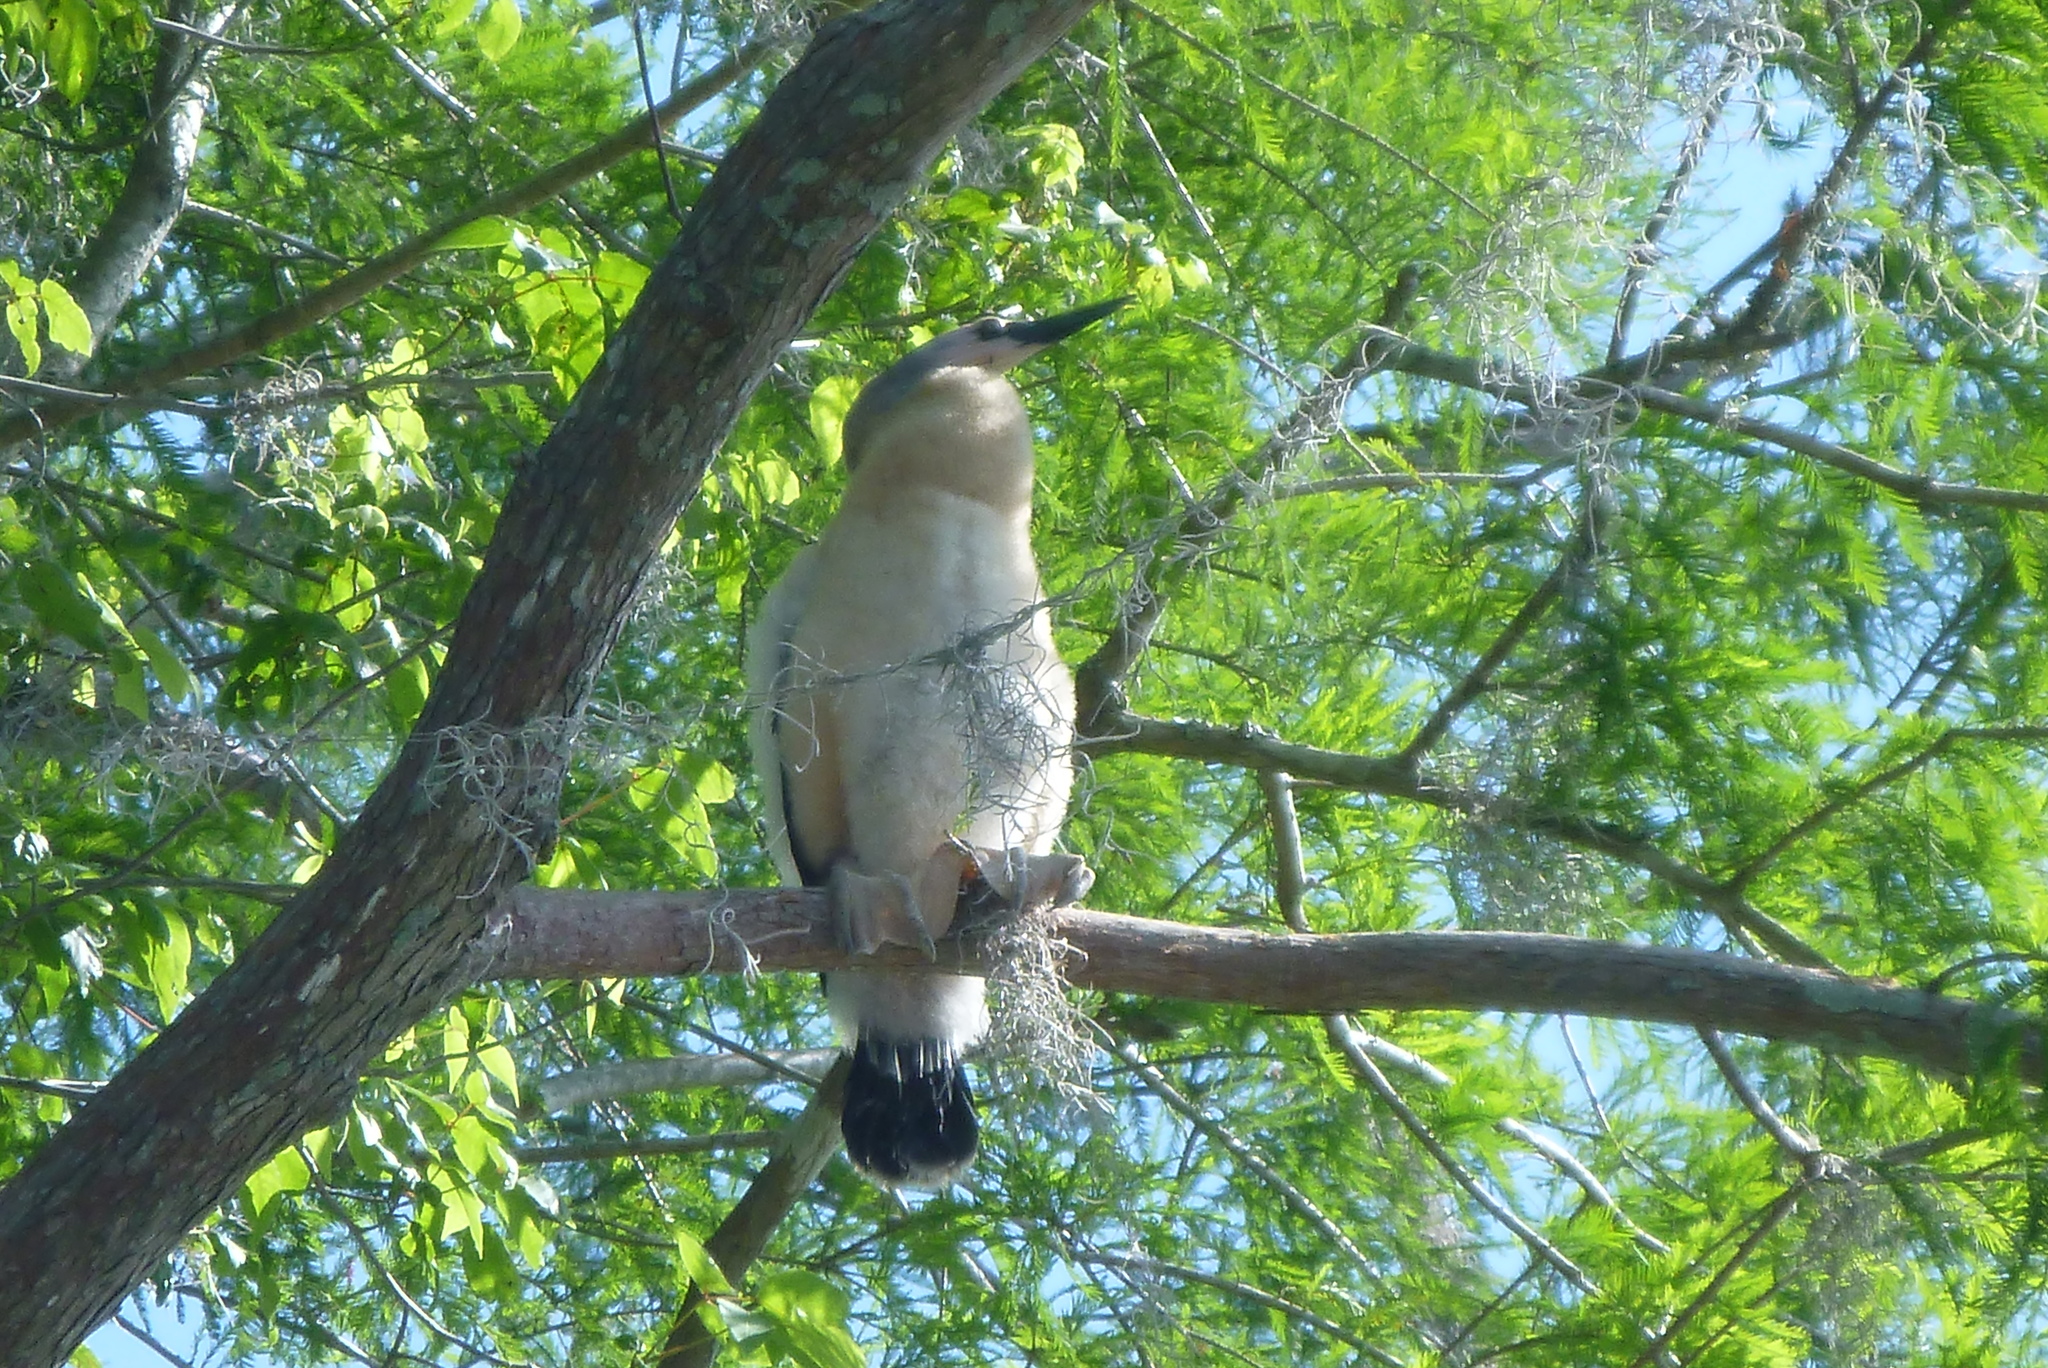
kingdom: Animalia
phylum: Chordata
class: Aves
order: Suliformes
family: Anhingidae
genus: Anhinga
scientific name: Anhinga anhinga
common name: Anhinga
